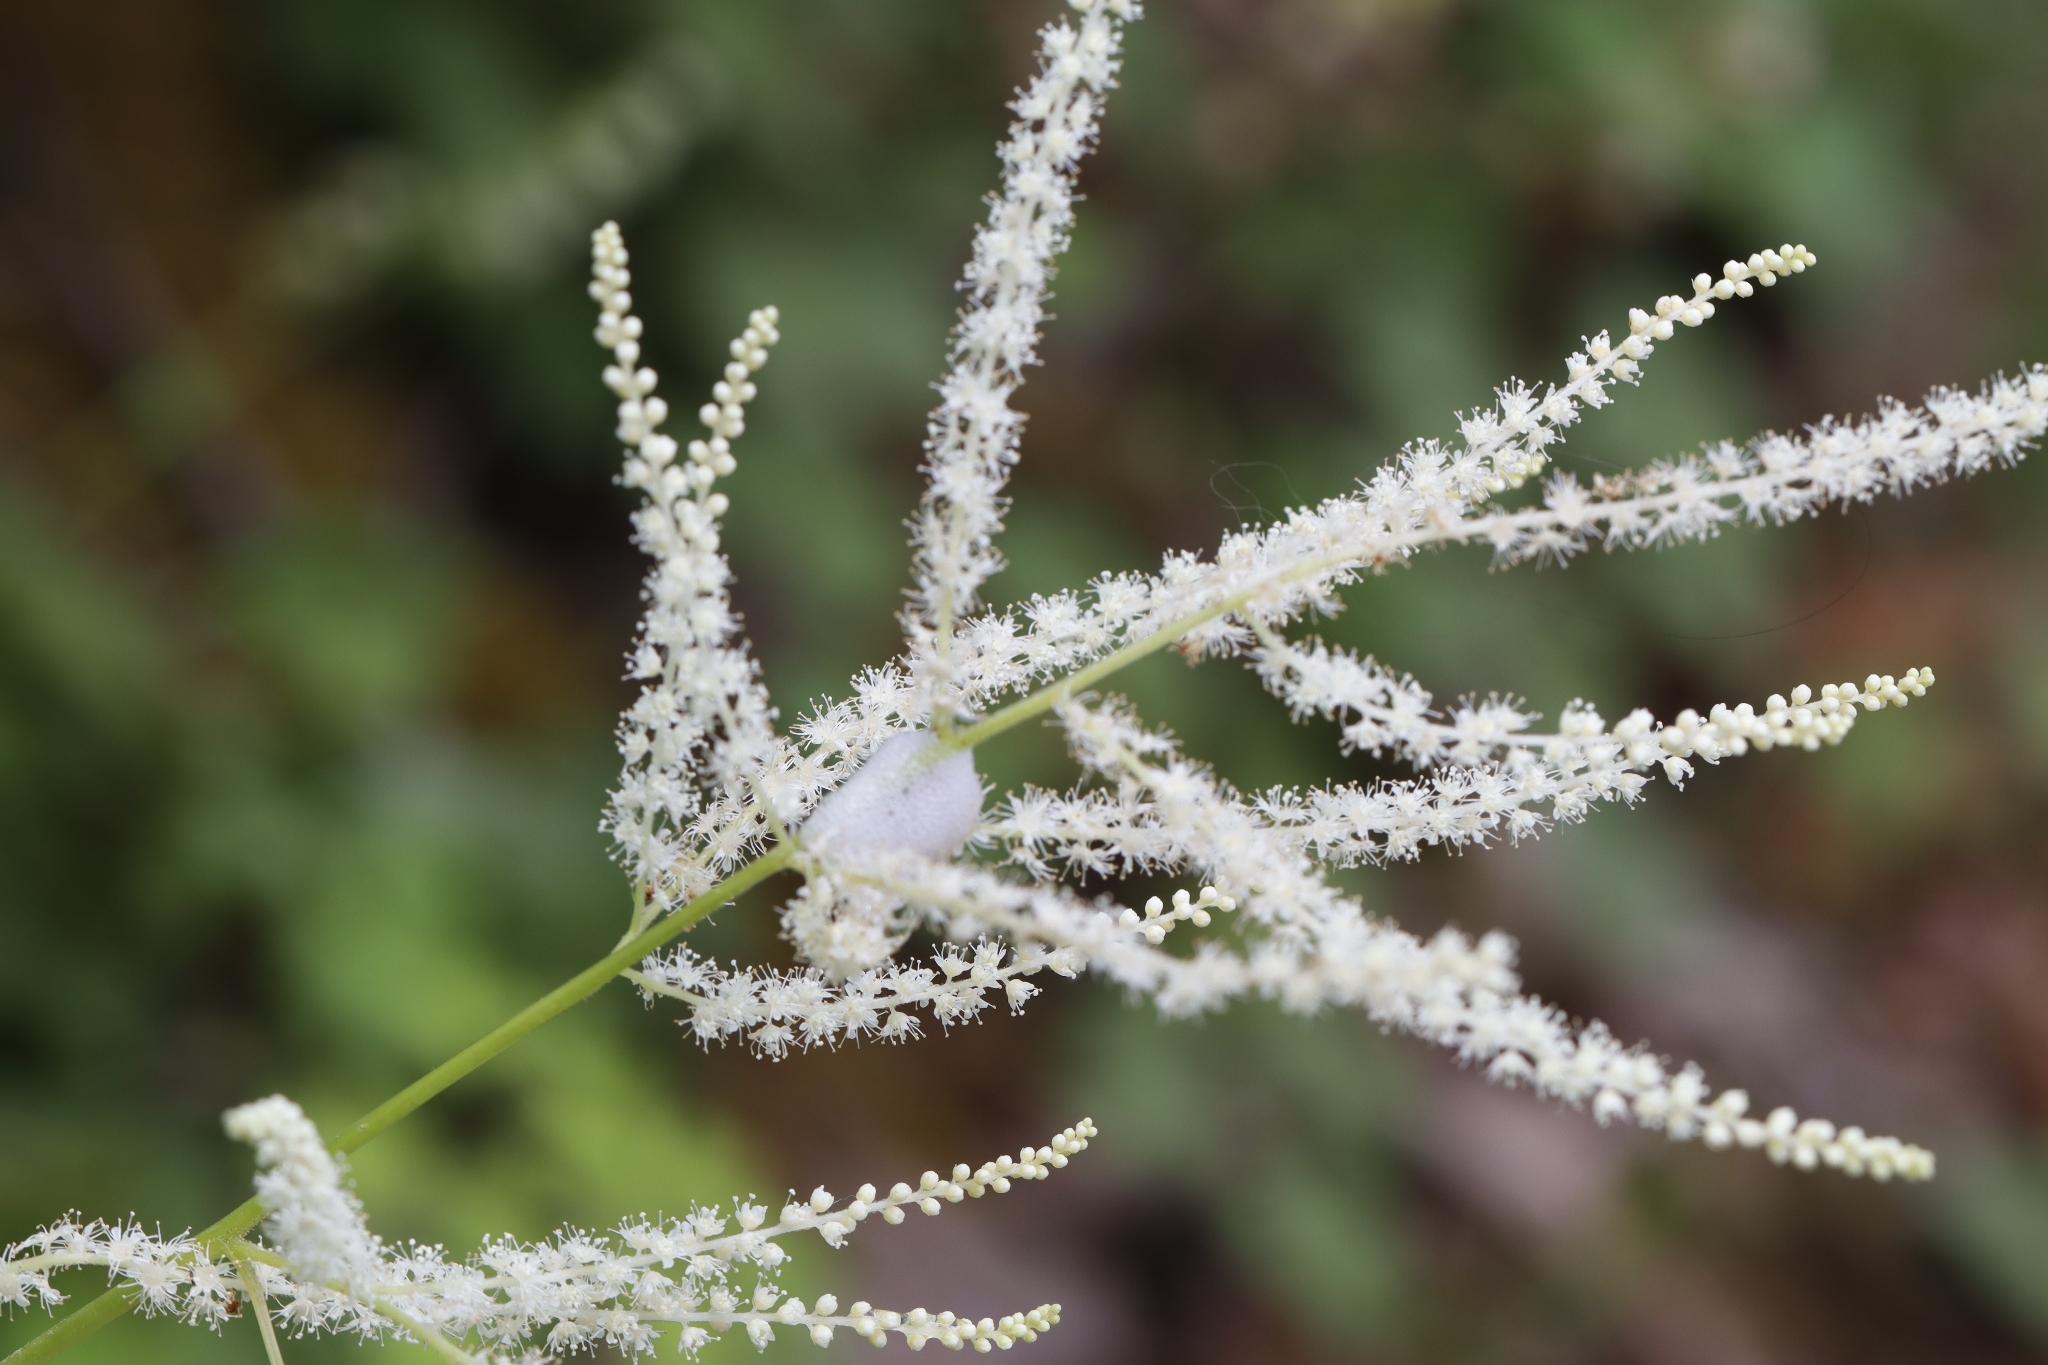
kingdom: Plantae
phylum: Tracheophyta
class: Magnoliopsida
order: Rosales
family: Rosaceae
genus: Aruncus
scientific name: Aruncus dioicus
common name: Buck's-beard
